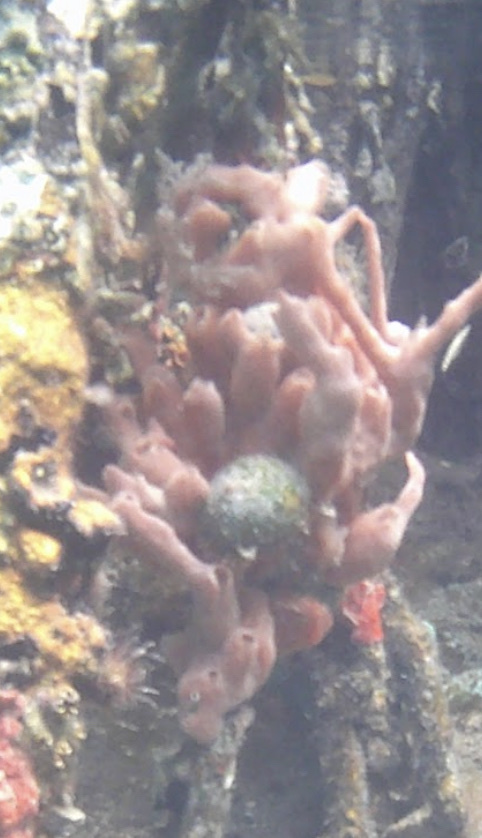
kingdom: Animalia
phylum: Porifera
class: Demospongiae
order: Poecilosclerida
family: Desmacididae
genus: Desmapsamma
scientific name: Desmapsamma anchorata
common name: Lumpy overgrowing sponge
